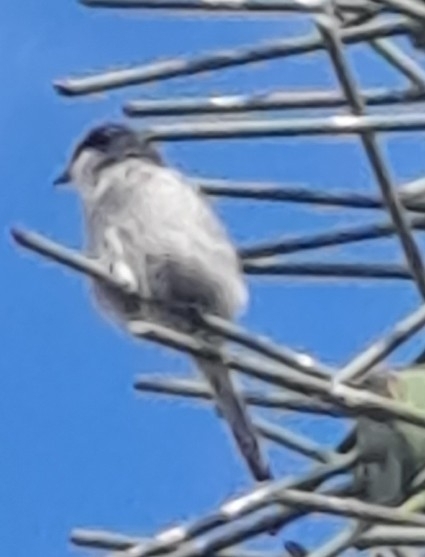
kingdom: Animalia
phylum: Chordata
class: Aves
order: Passeriformes
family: Laniidae
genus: Lanius
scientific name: Lanius excubitor
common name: Great grey shrike
